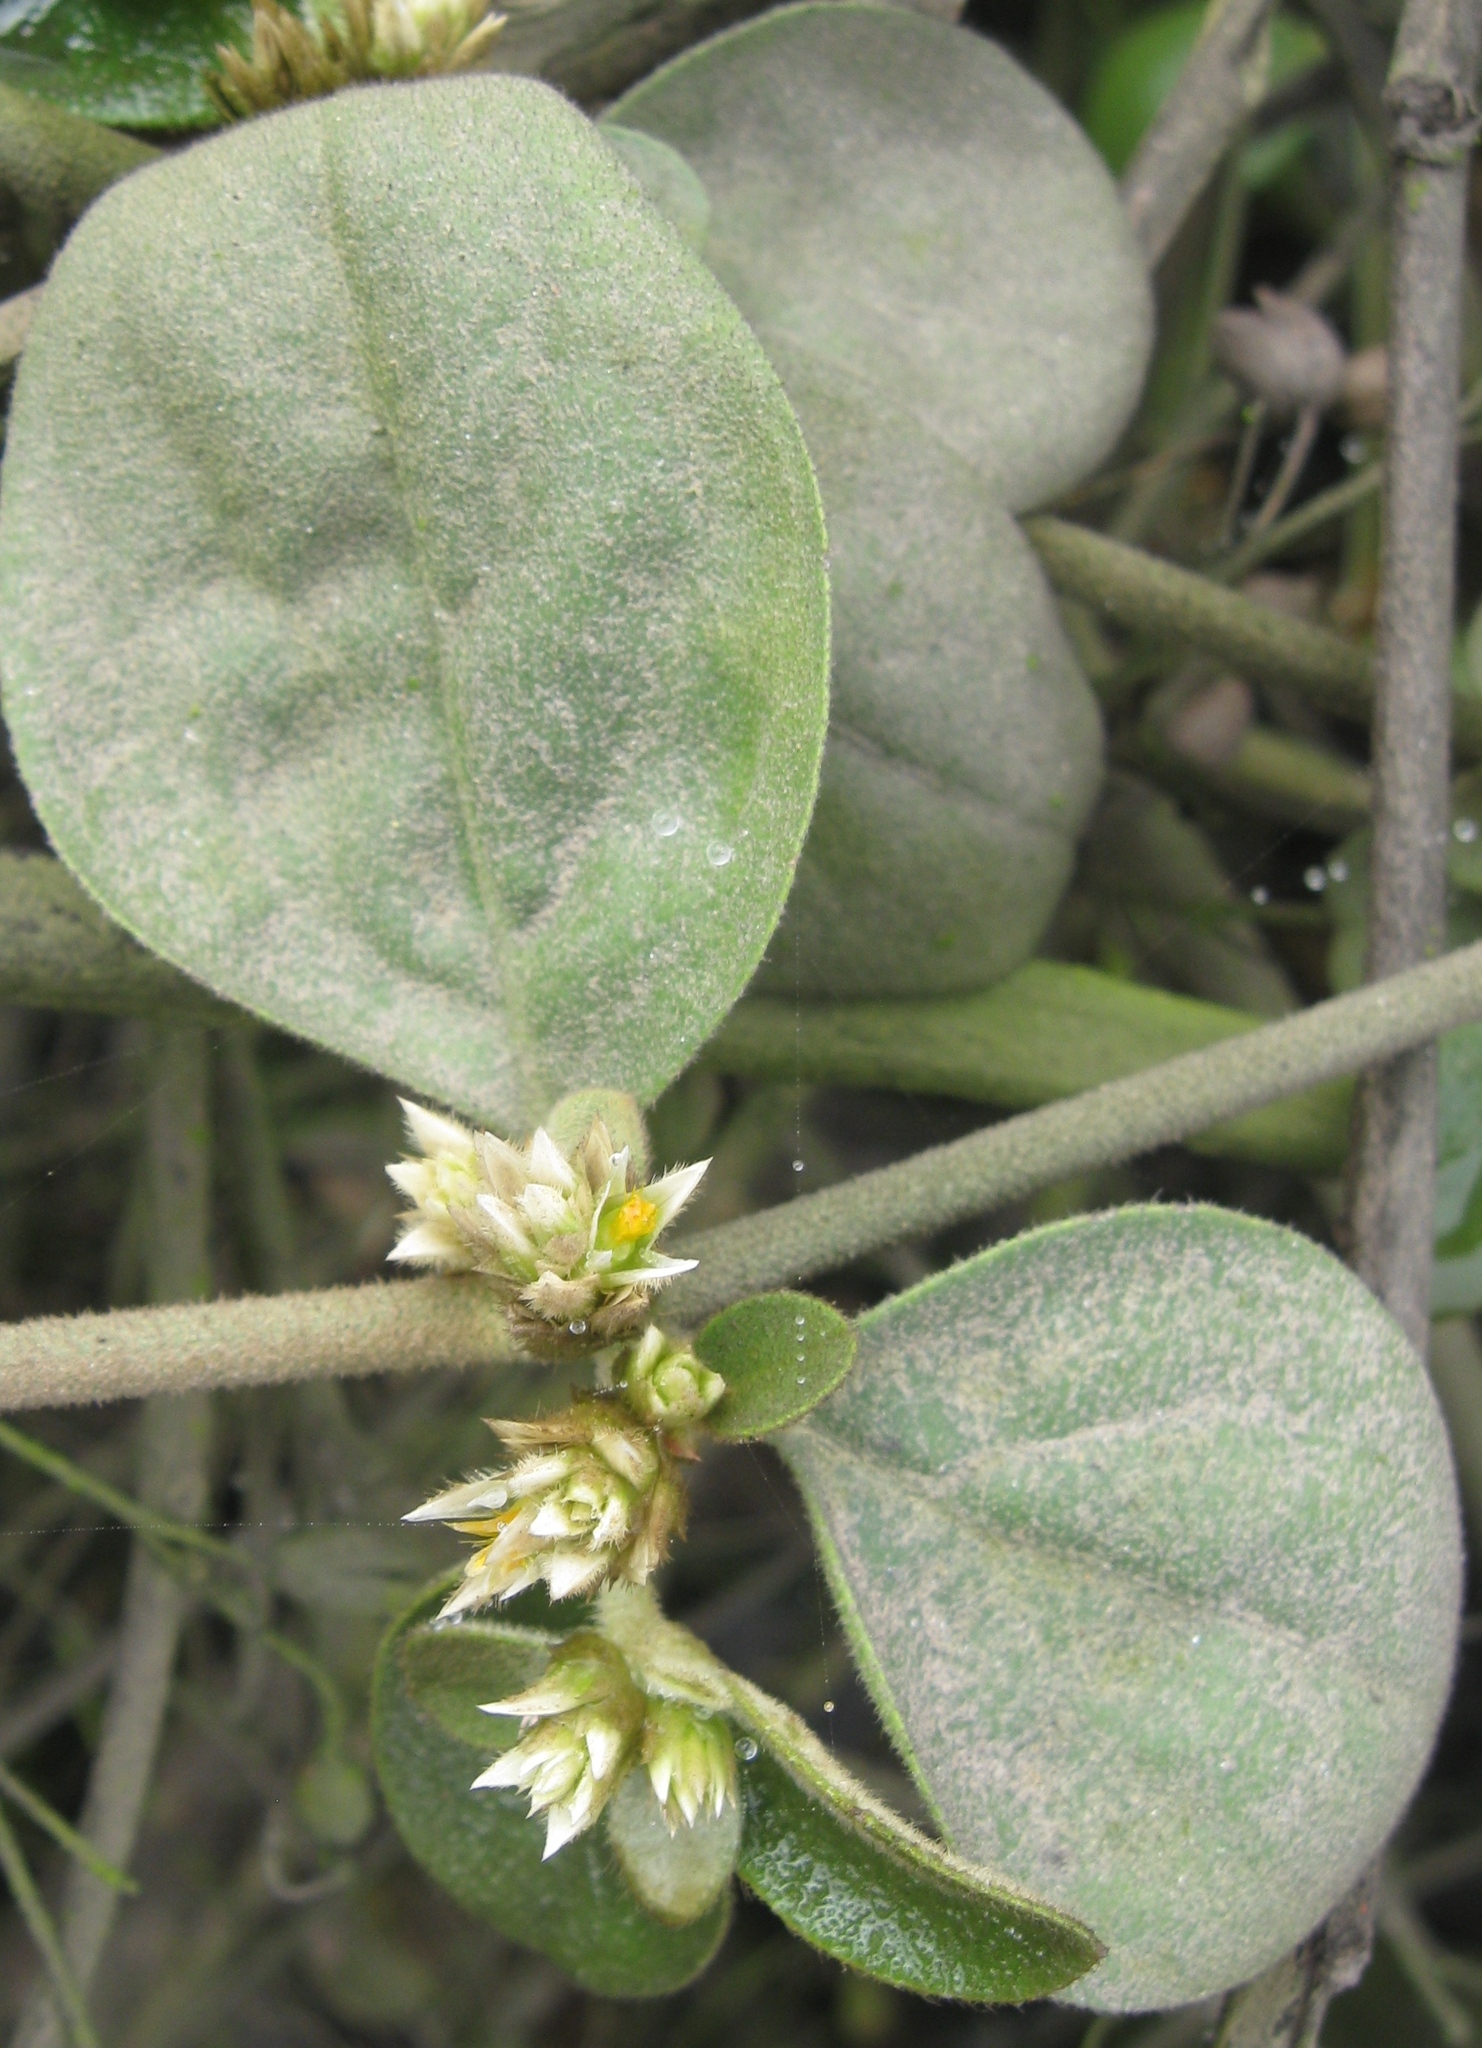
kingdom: Plantae
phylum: Tracheophyta
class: Magnoliopsida
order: Caryophyllales
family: Amaranthaceae
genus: Alternanthera
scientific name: Alternanthera halimifolia
